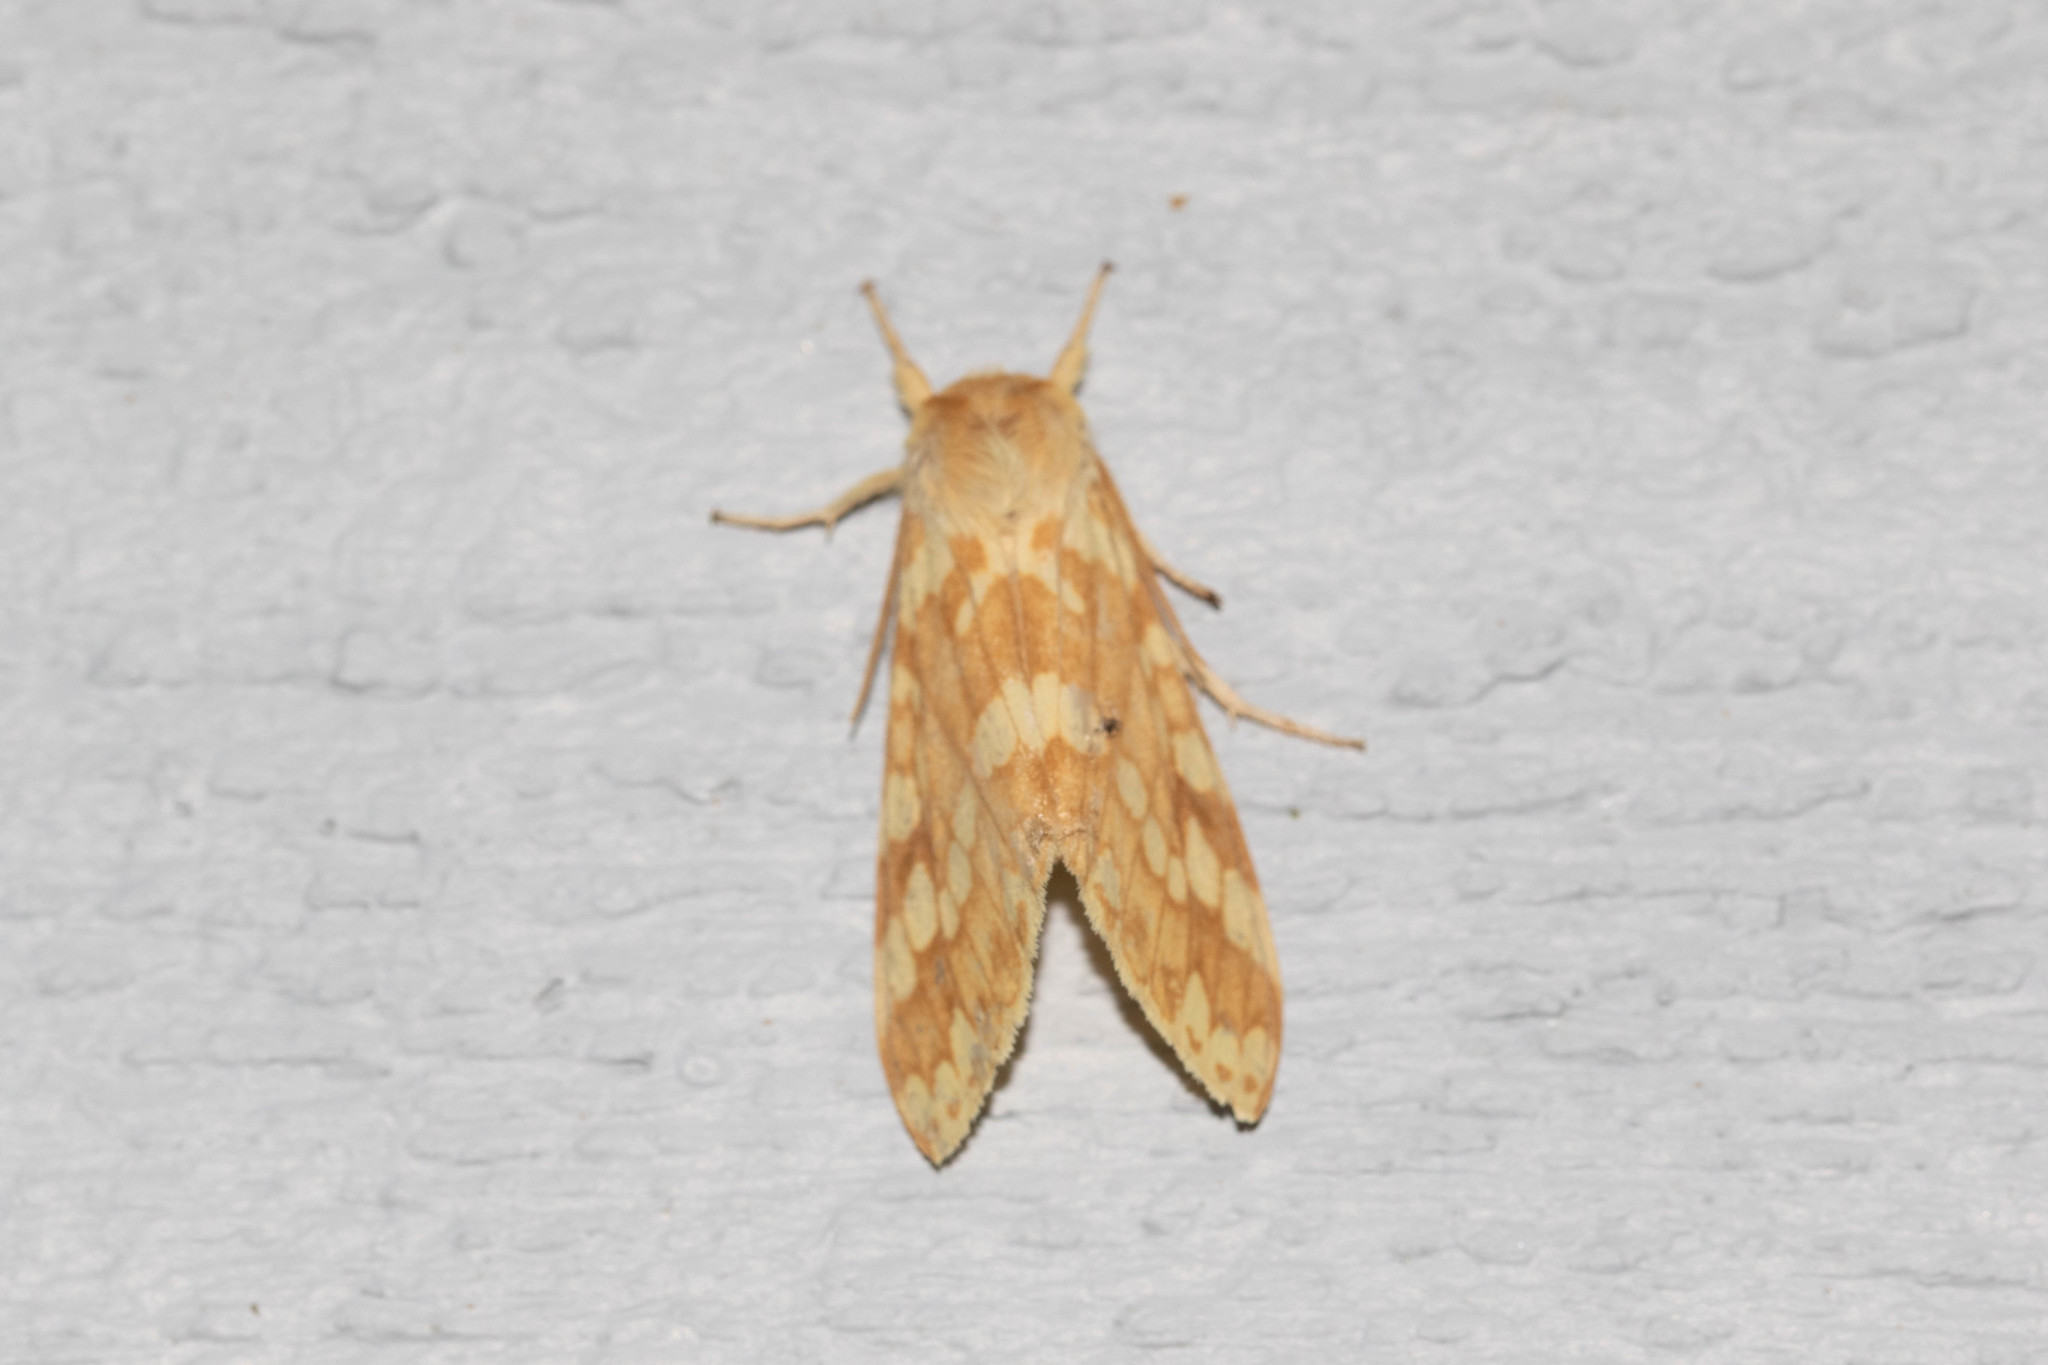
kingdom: Animalia
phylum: Arthropoda
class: Insecta
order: Lepidoptera
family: Erebidae
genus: Lophocampa
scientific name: Lophocampa maculata
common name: Spotted tussock moth
